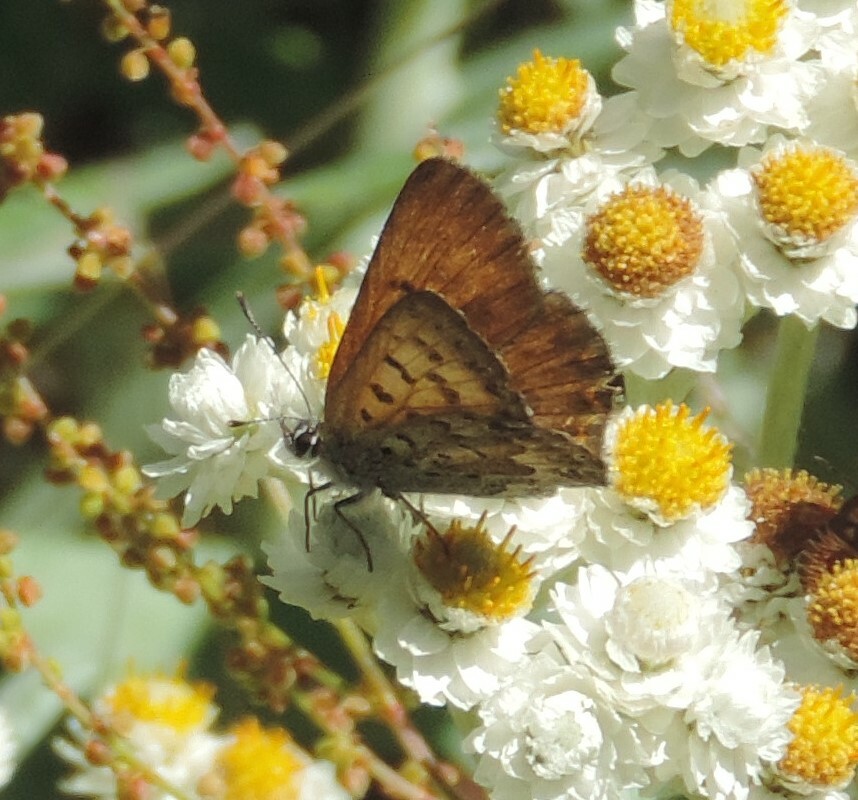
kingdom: Animalia
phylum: Arthropoda
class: Insecta
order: Lepidoptera
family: Lycaenidae
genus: Tharsalea
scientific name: Tharsalea mariposa
